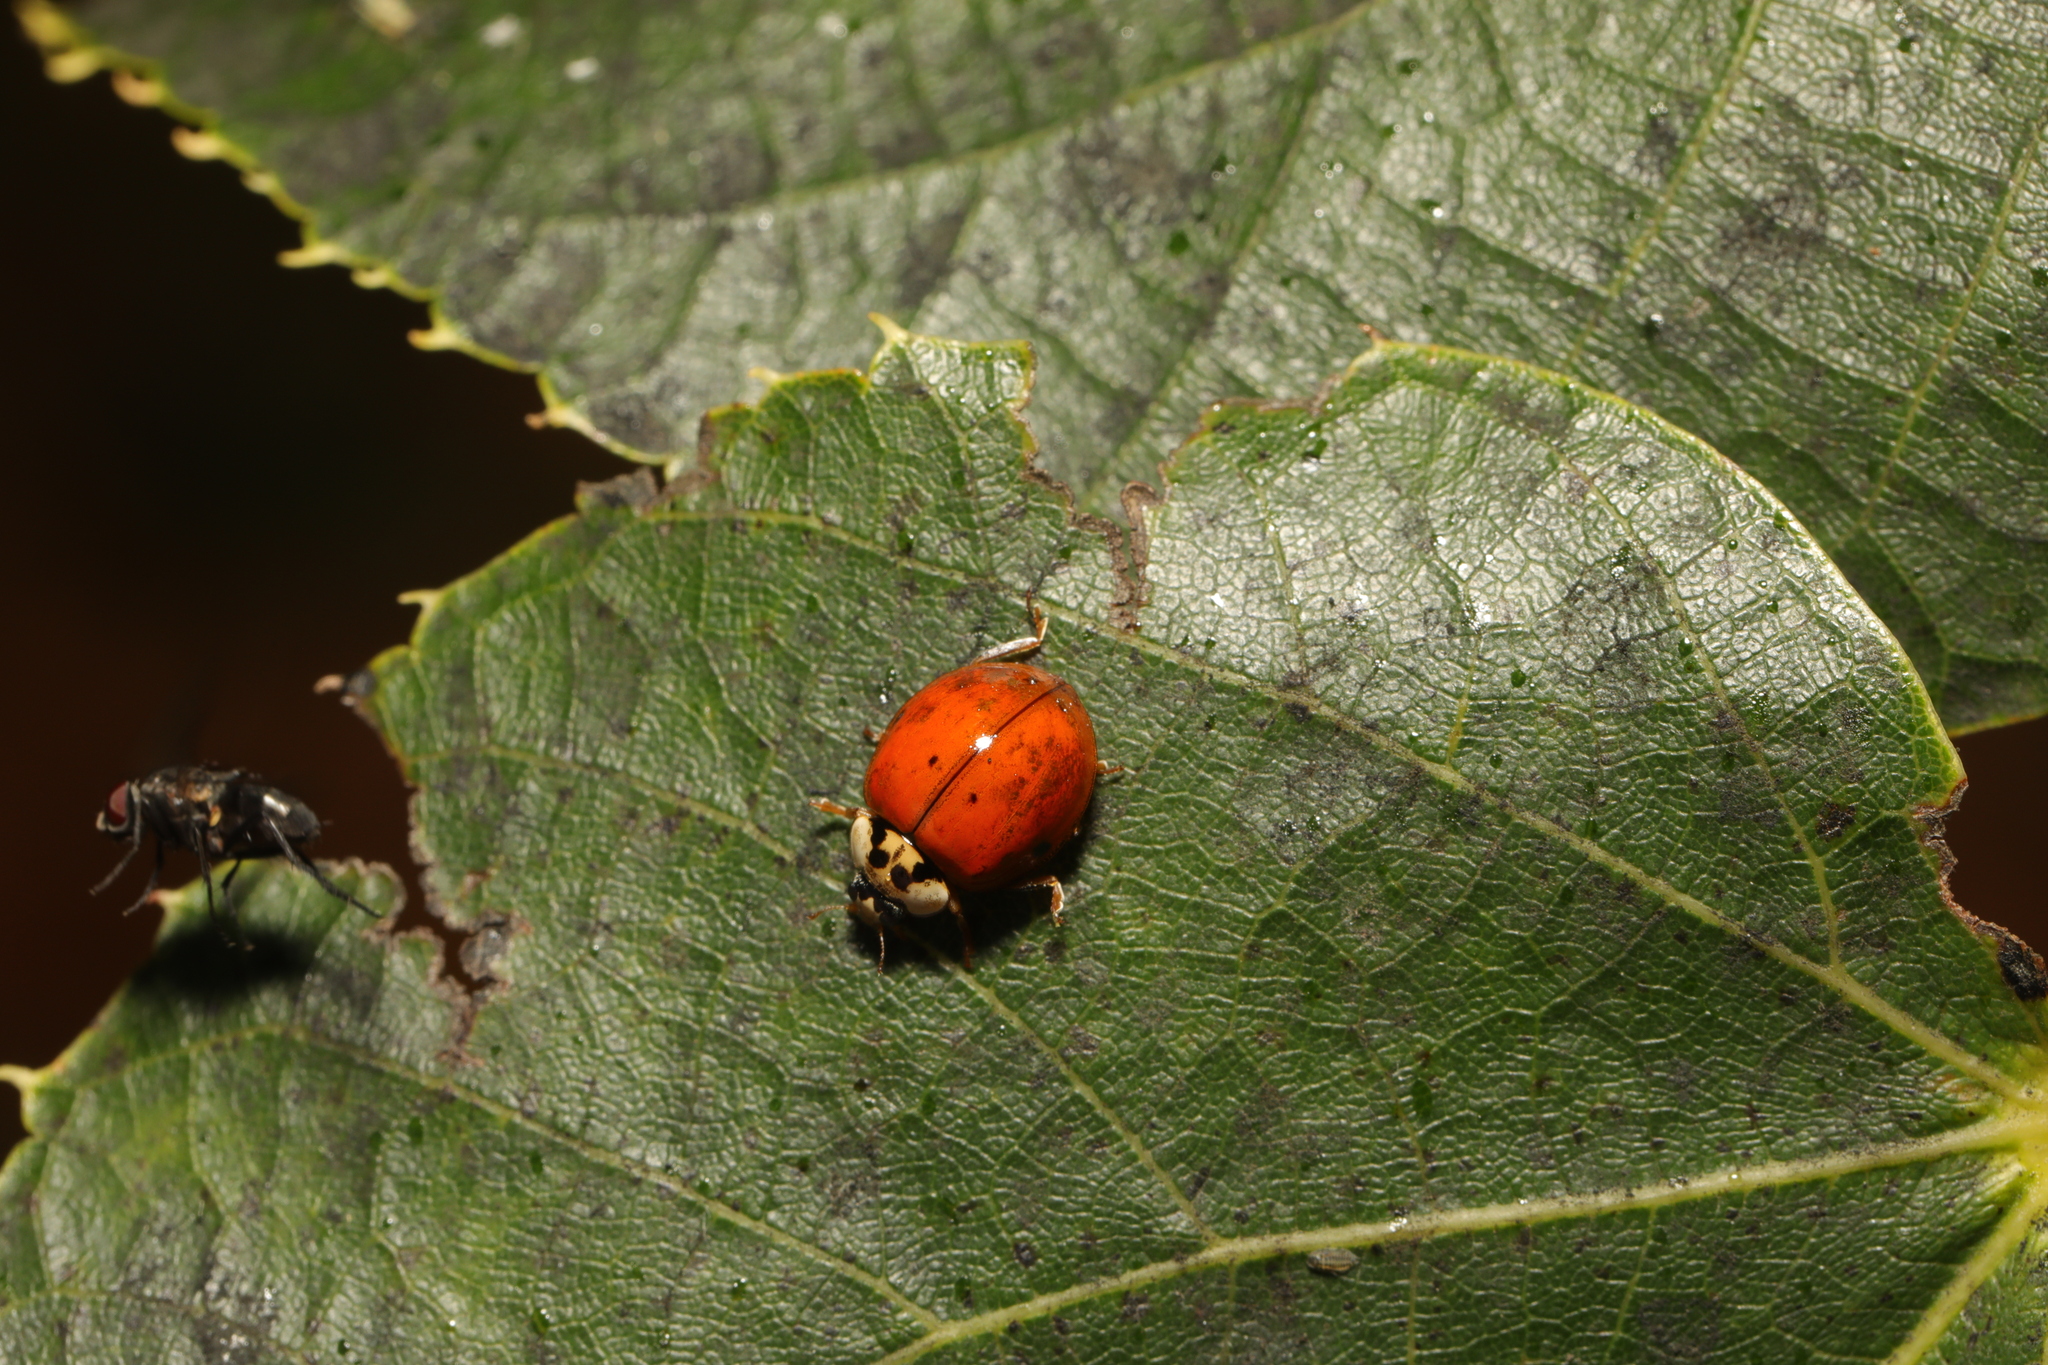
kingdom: Animalia
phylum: Arthropoda
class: Insecta
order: Coleoptera
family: Coccinellidae
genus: Harmonia
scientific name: Harmonia axyridis
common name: Harlequin ladybird
